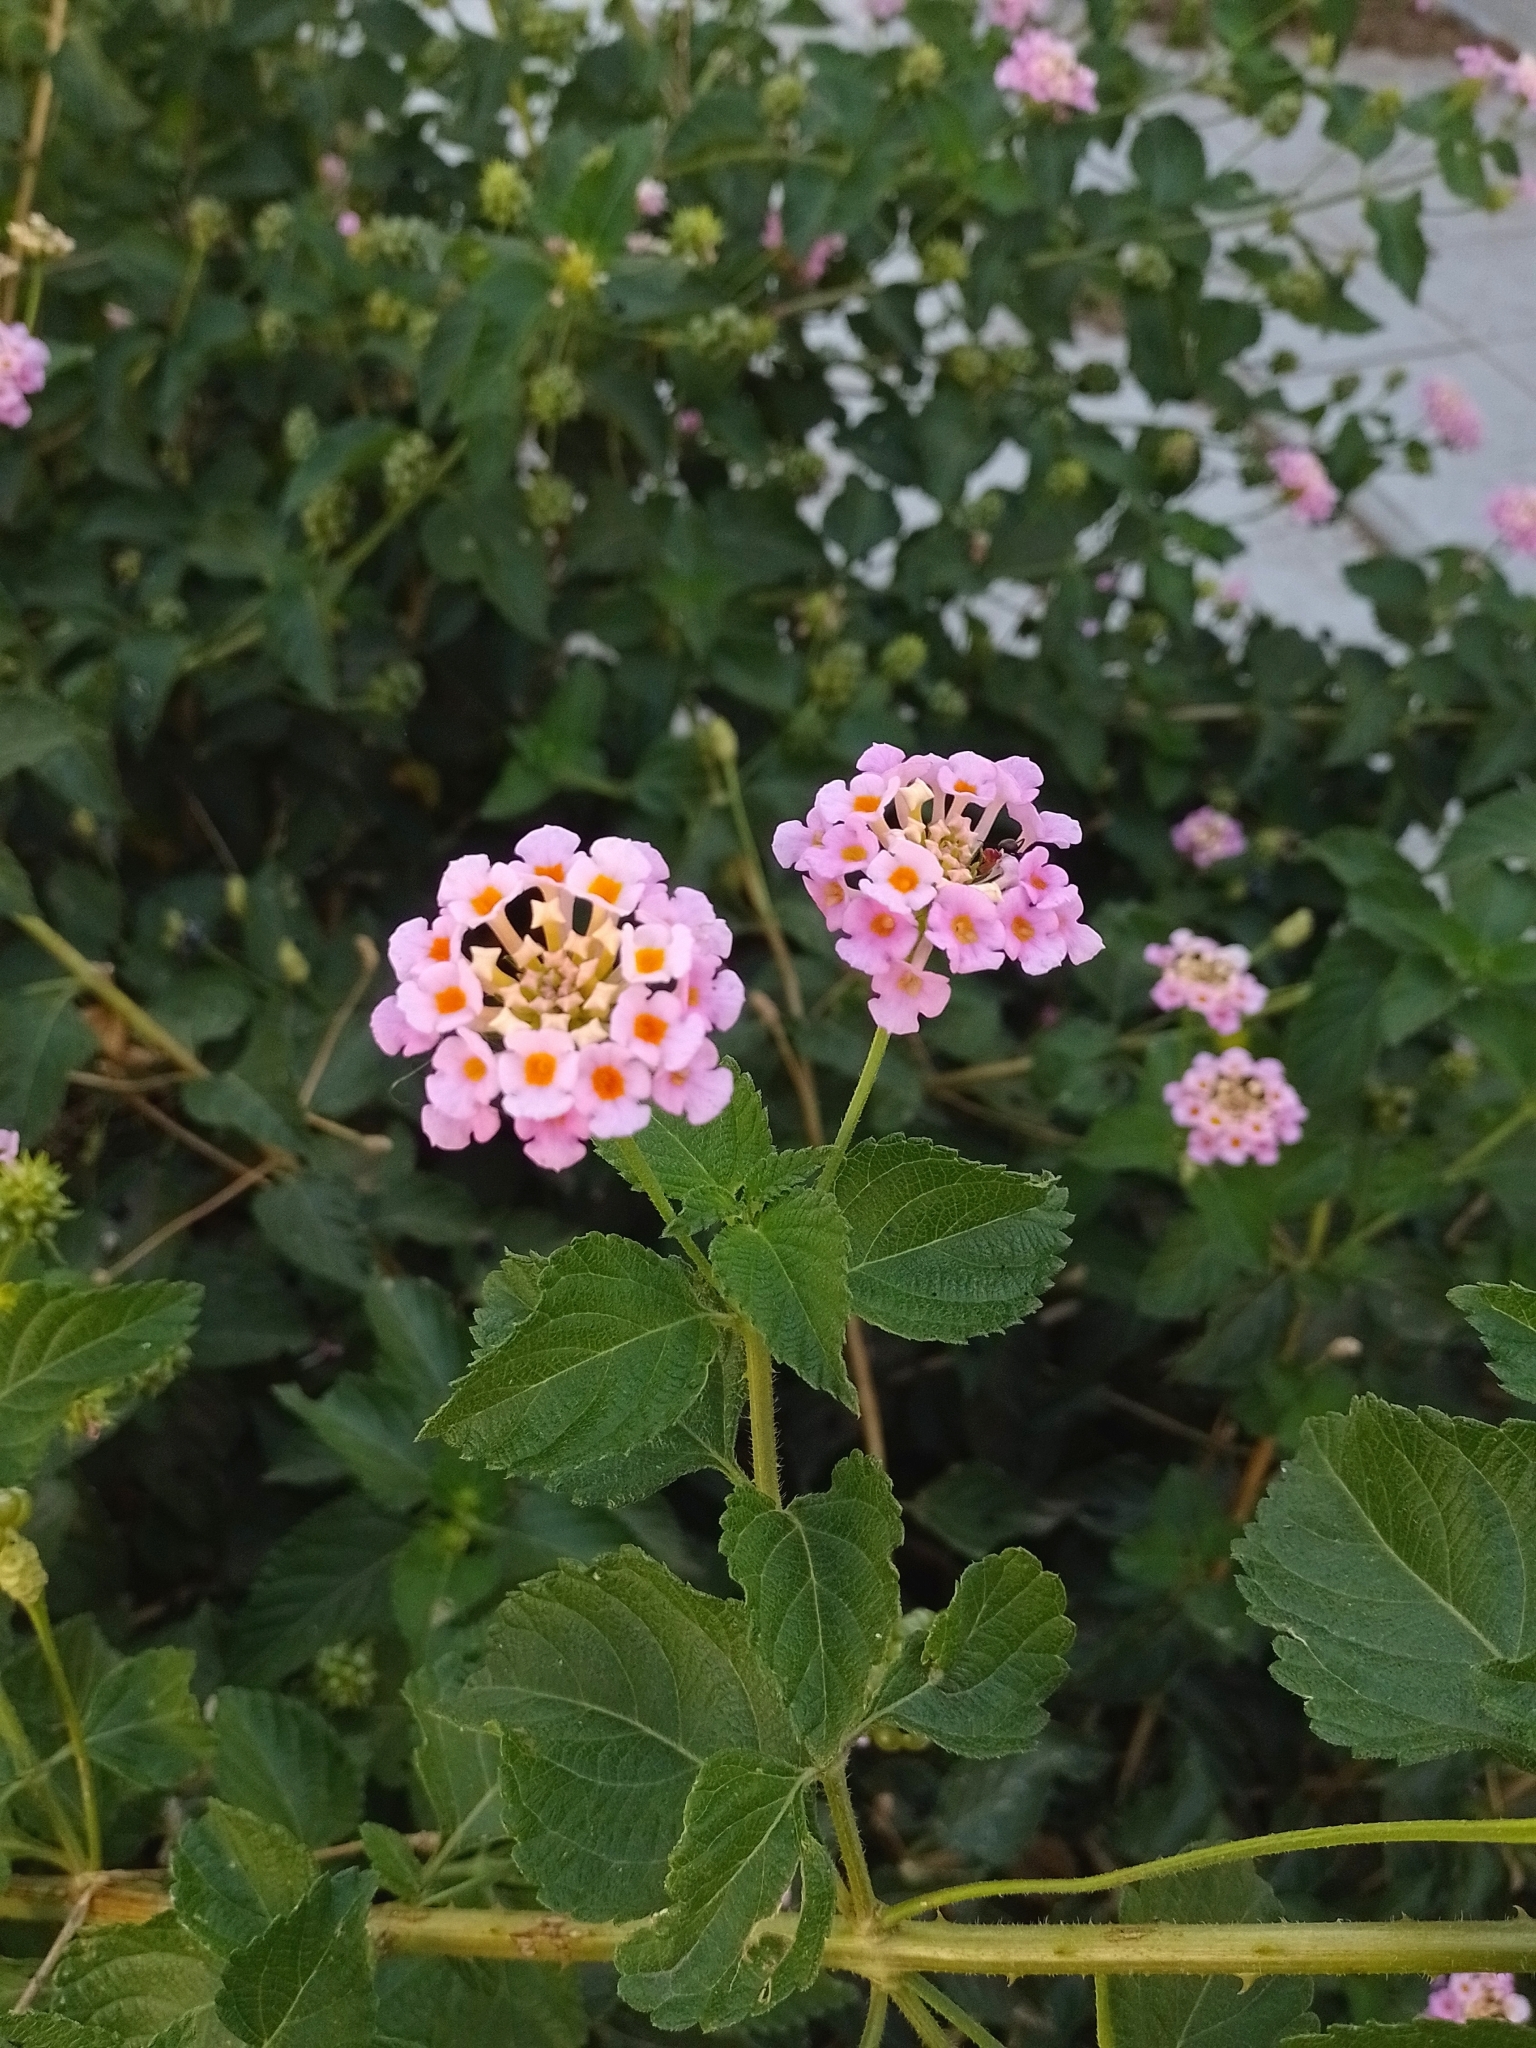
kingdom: Plantae
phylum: Tracheophyta
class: Magnoliopsida
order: Lamiales
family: Verbenaceae
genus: Lantana
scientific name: Lantana camara
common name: Lantana
